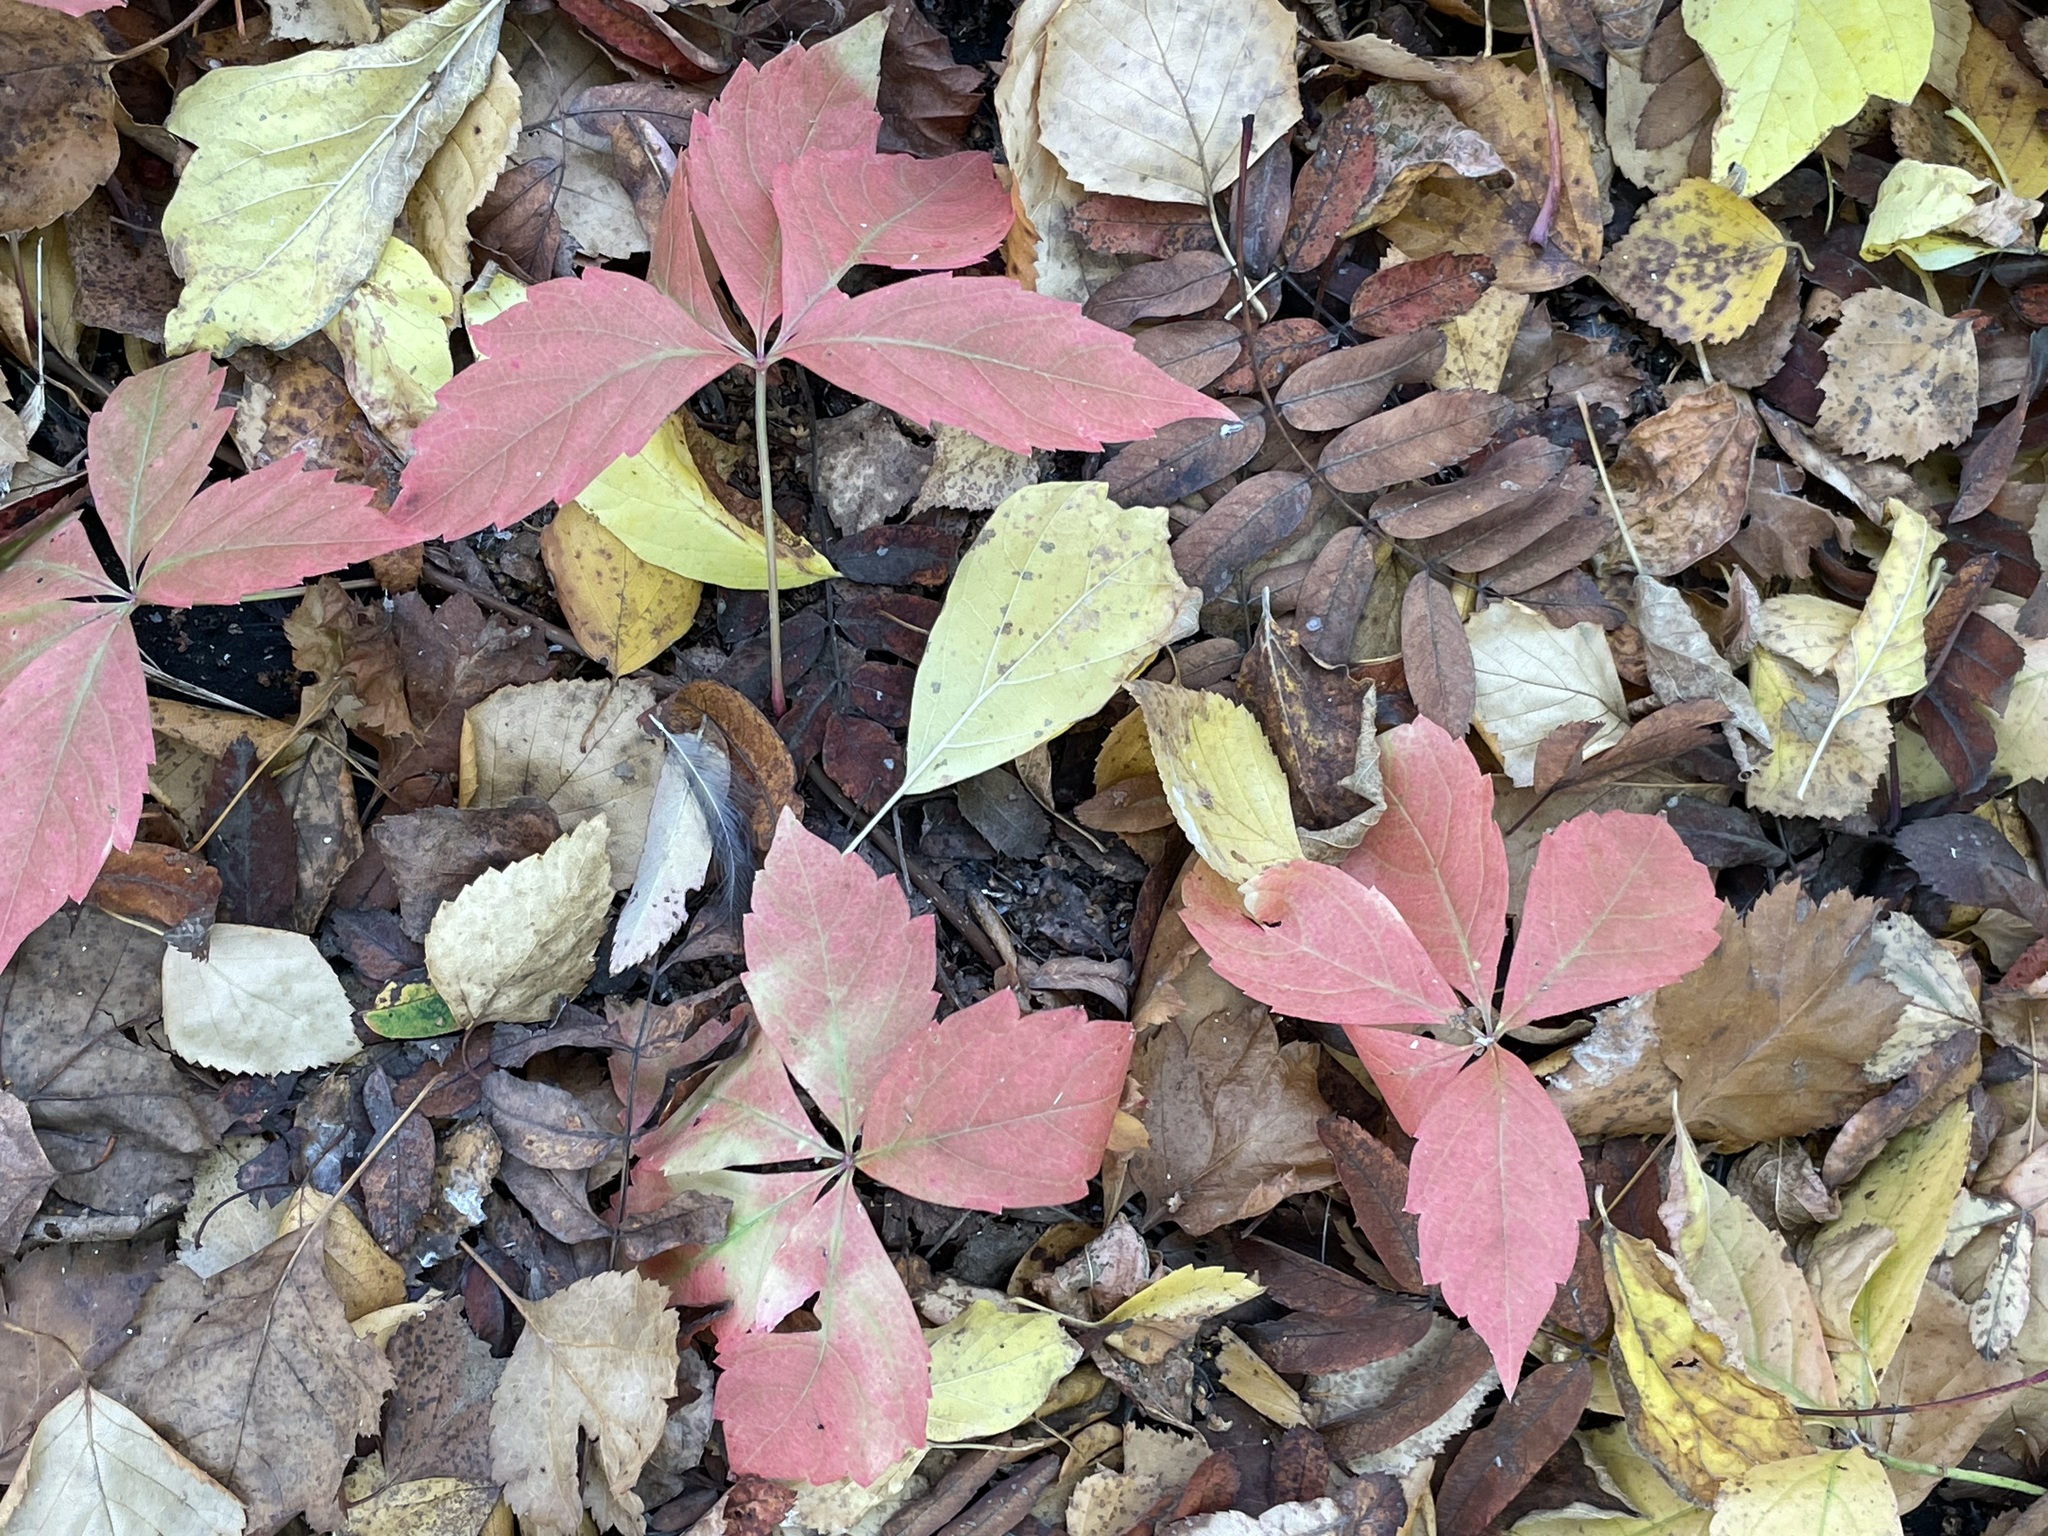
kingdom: Plantae
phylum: Tracheophyta
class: Magnoliopsida
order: Vitales
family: Vitaceae
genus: Parthenocissus
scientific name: Parthenocissus inserta
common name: False virginia-creeper
